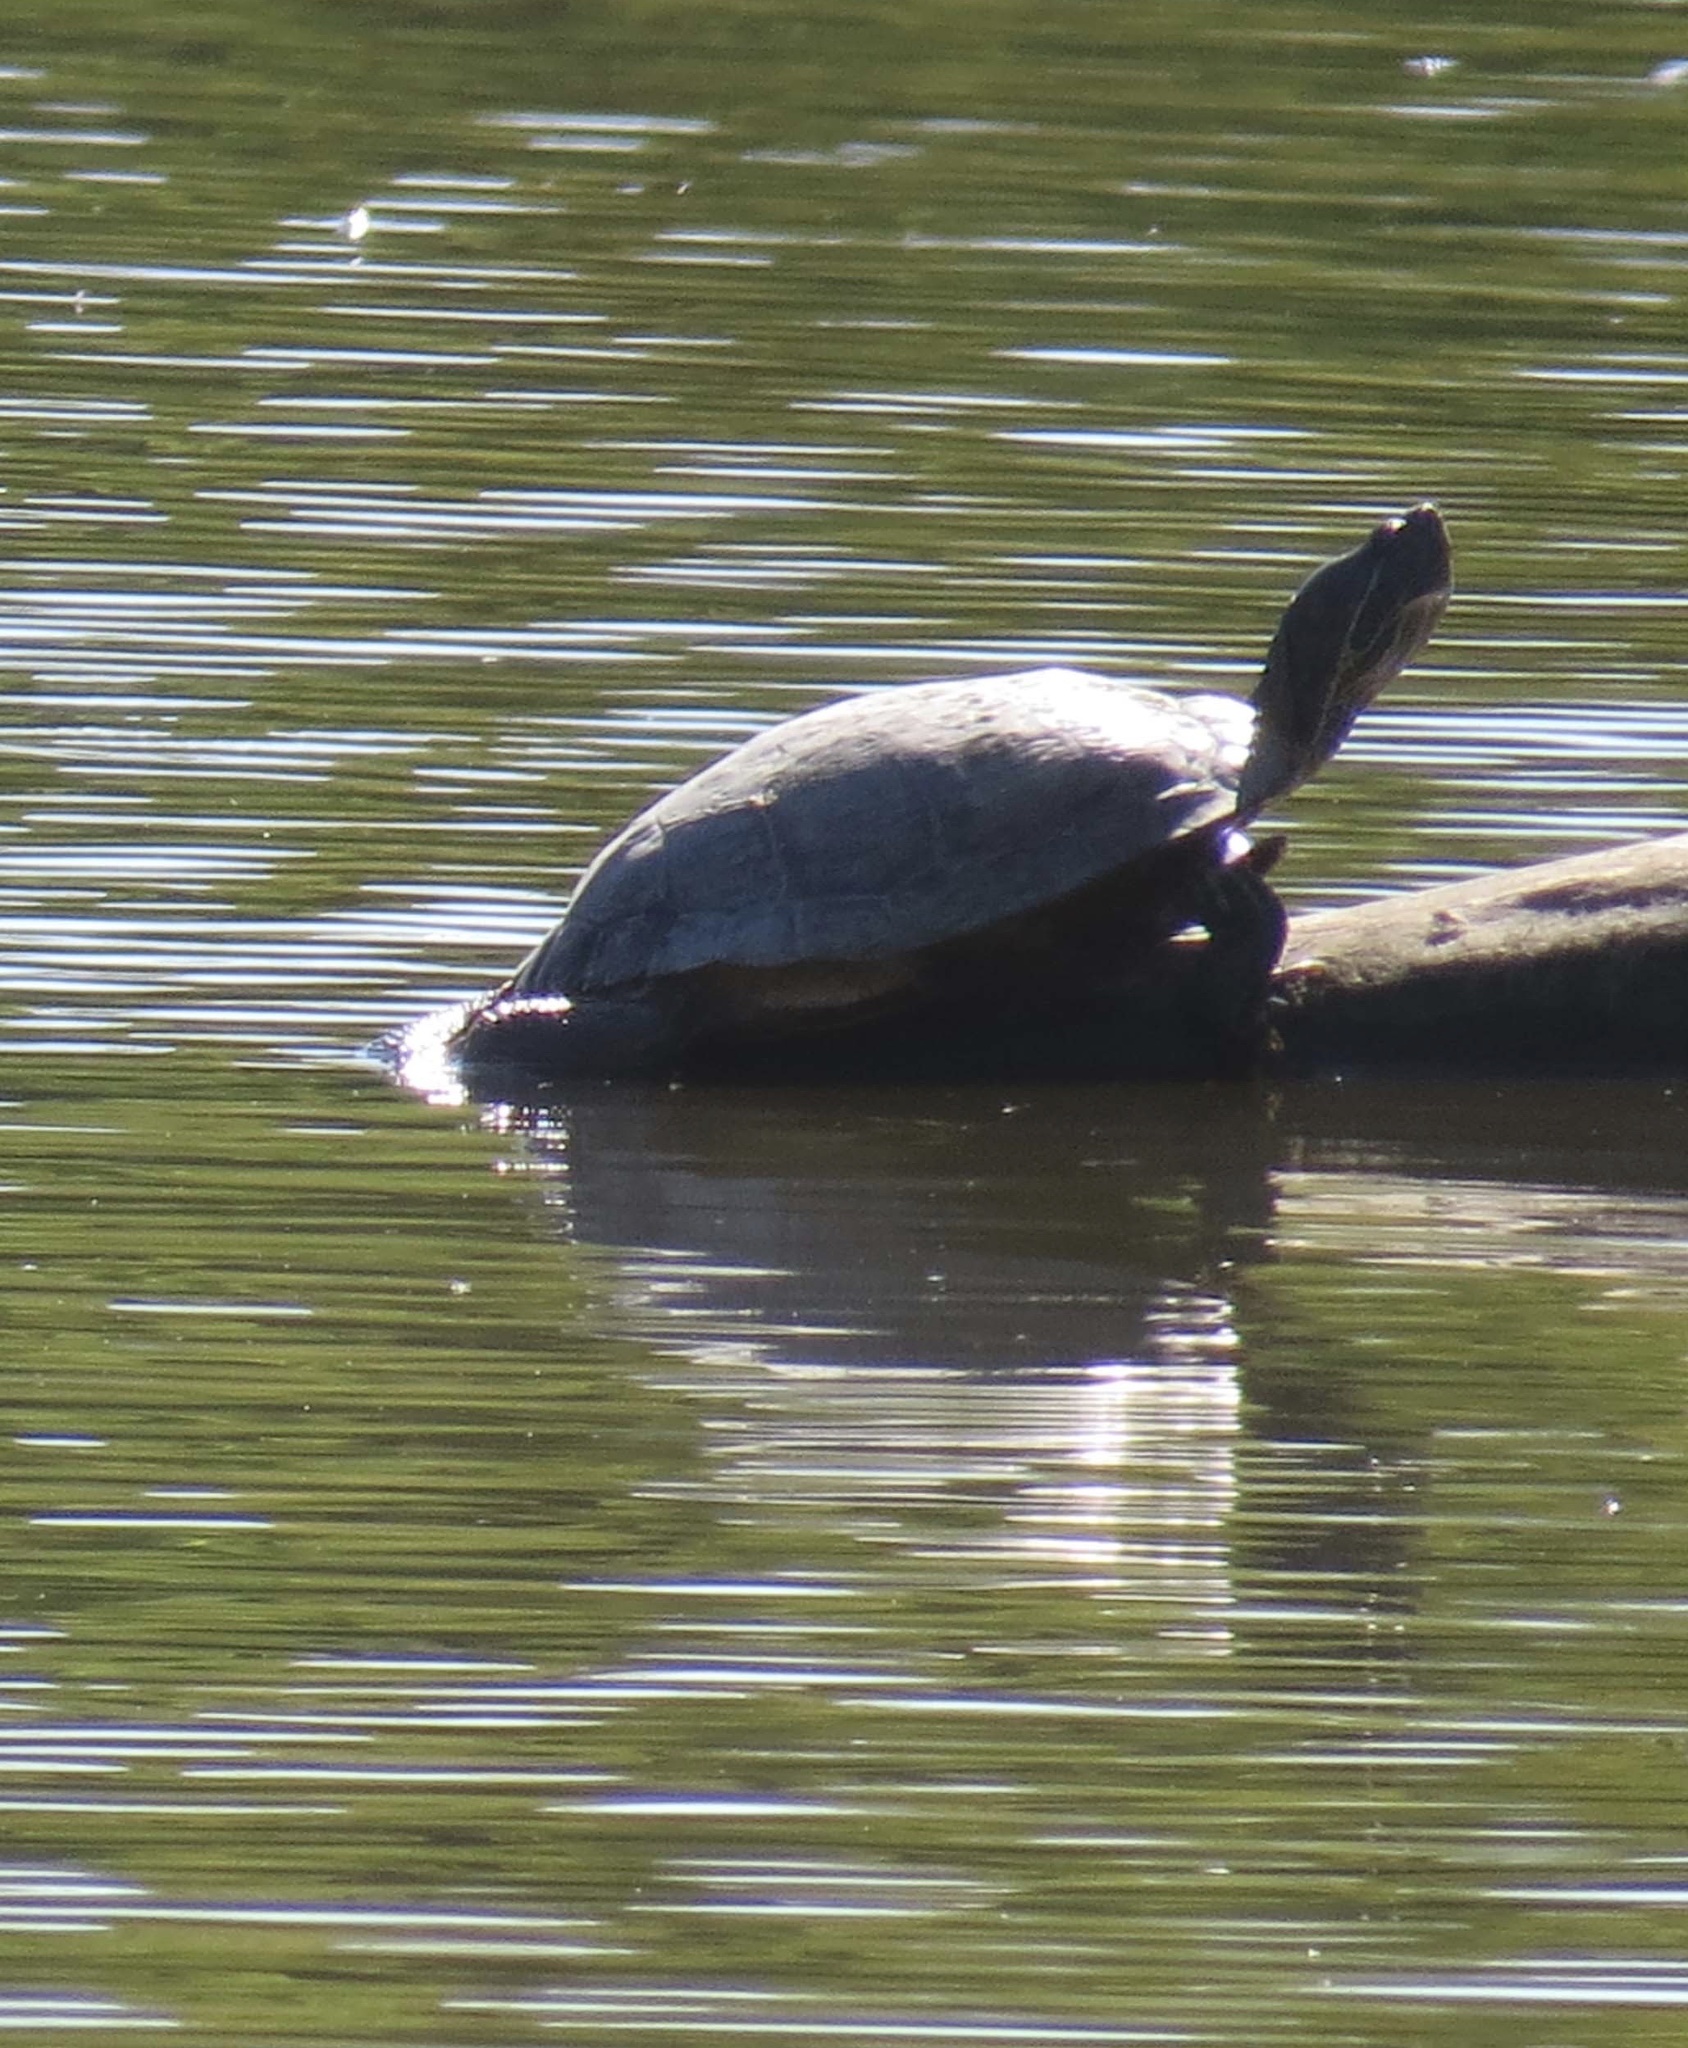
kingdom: Animalia
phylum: Chordata
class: Testudines
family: Emydidae
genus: Trachemys
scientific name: Trachemys scripta
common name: Slider
